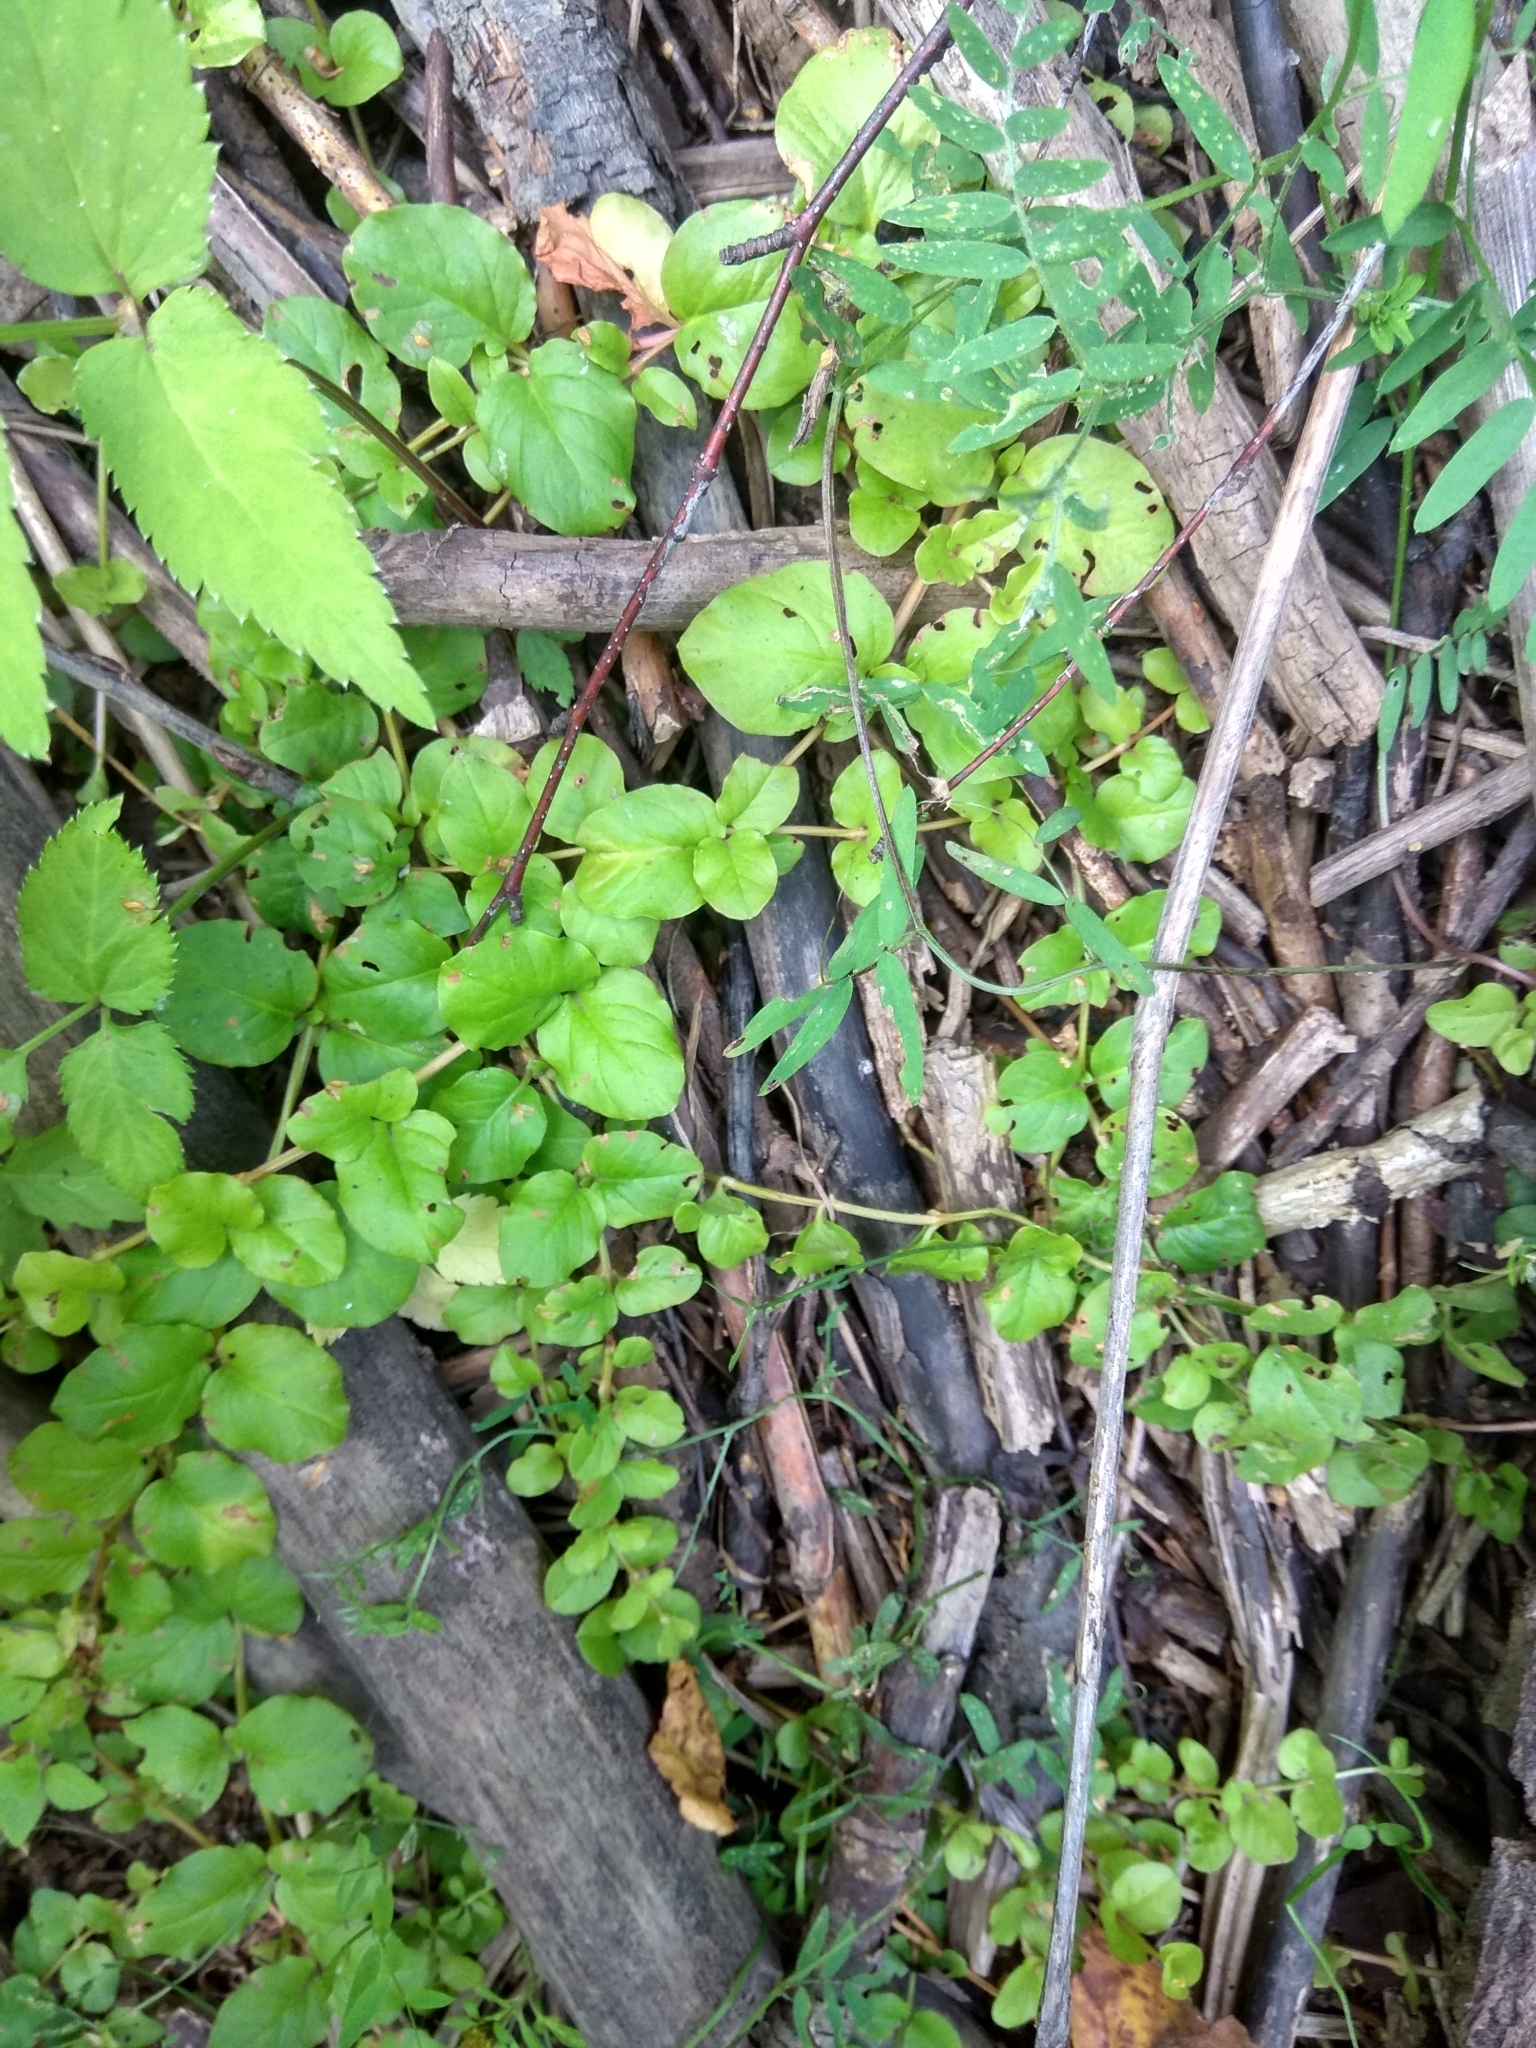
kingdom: Plantae
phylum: Tracheophyta
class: Magnoliopsida
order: Ericales
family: Primulaceae
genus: Lysimachia
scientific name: Lysimachia nummularia
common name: Moneywort
